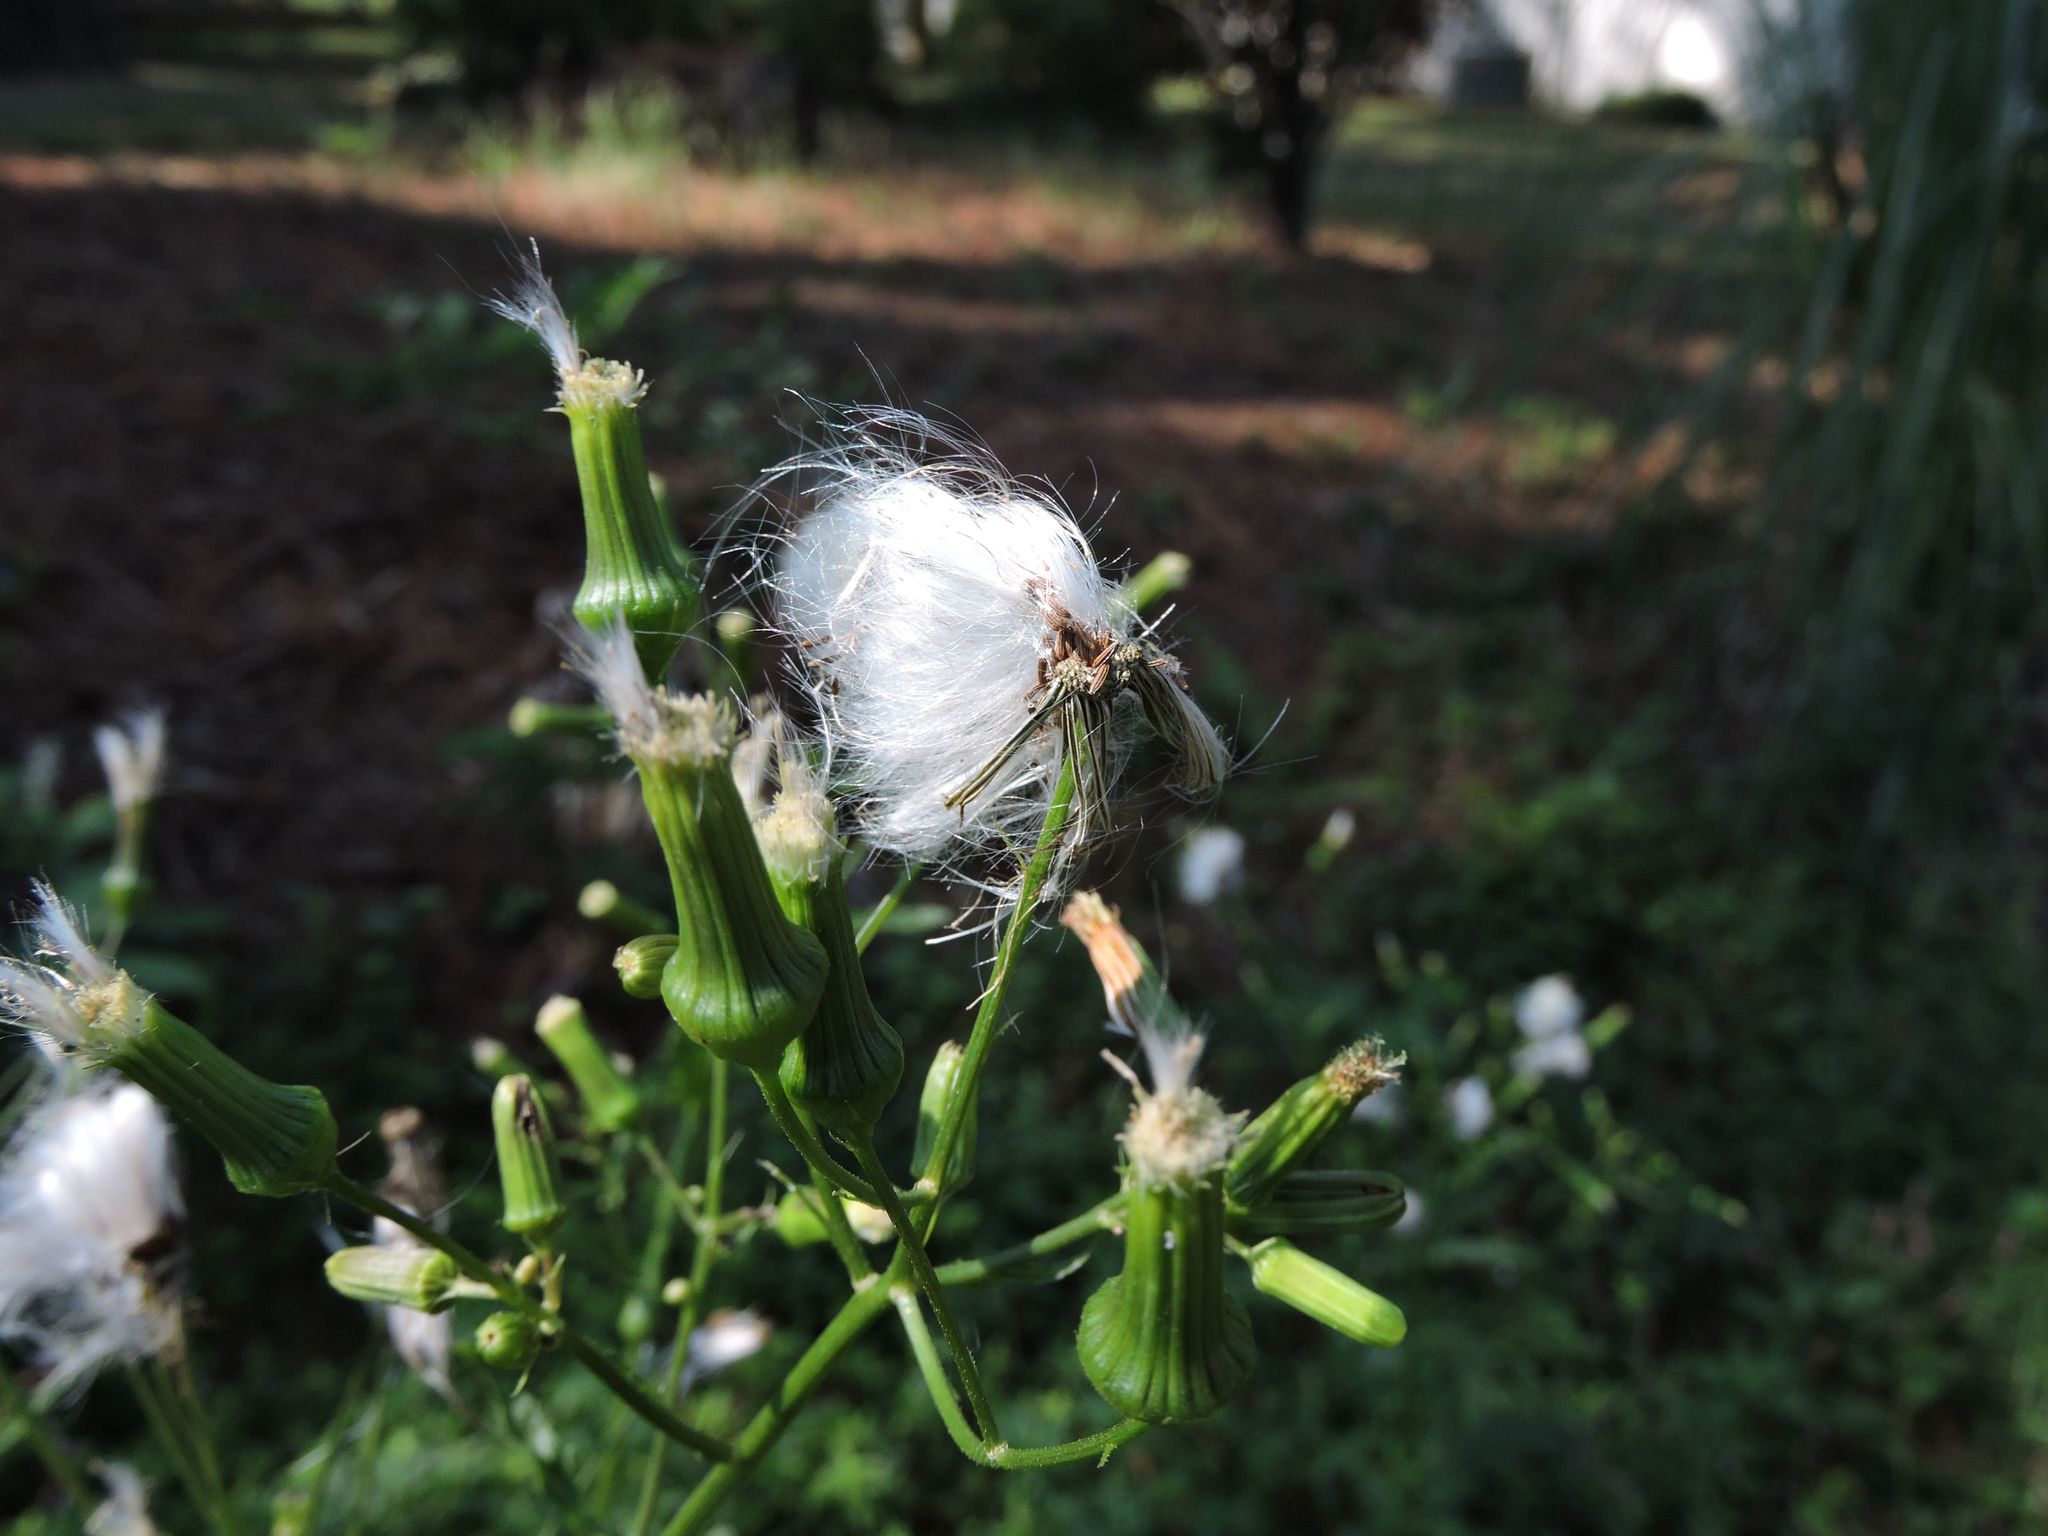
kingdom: Plantae
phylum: Tracheophyta
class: Magnoliopsida
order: Asterales
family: Asteraceae
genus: Erechtites
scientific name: Erechtites hieraciifolius
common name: American burnweed
